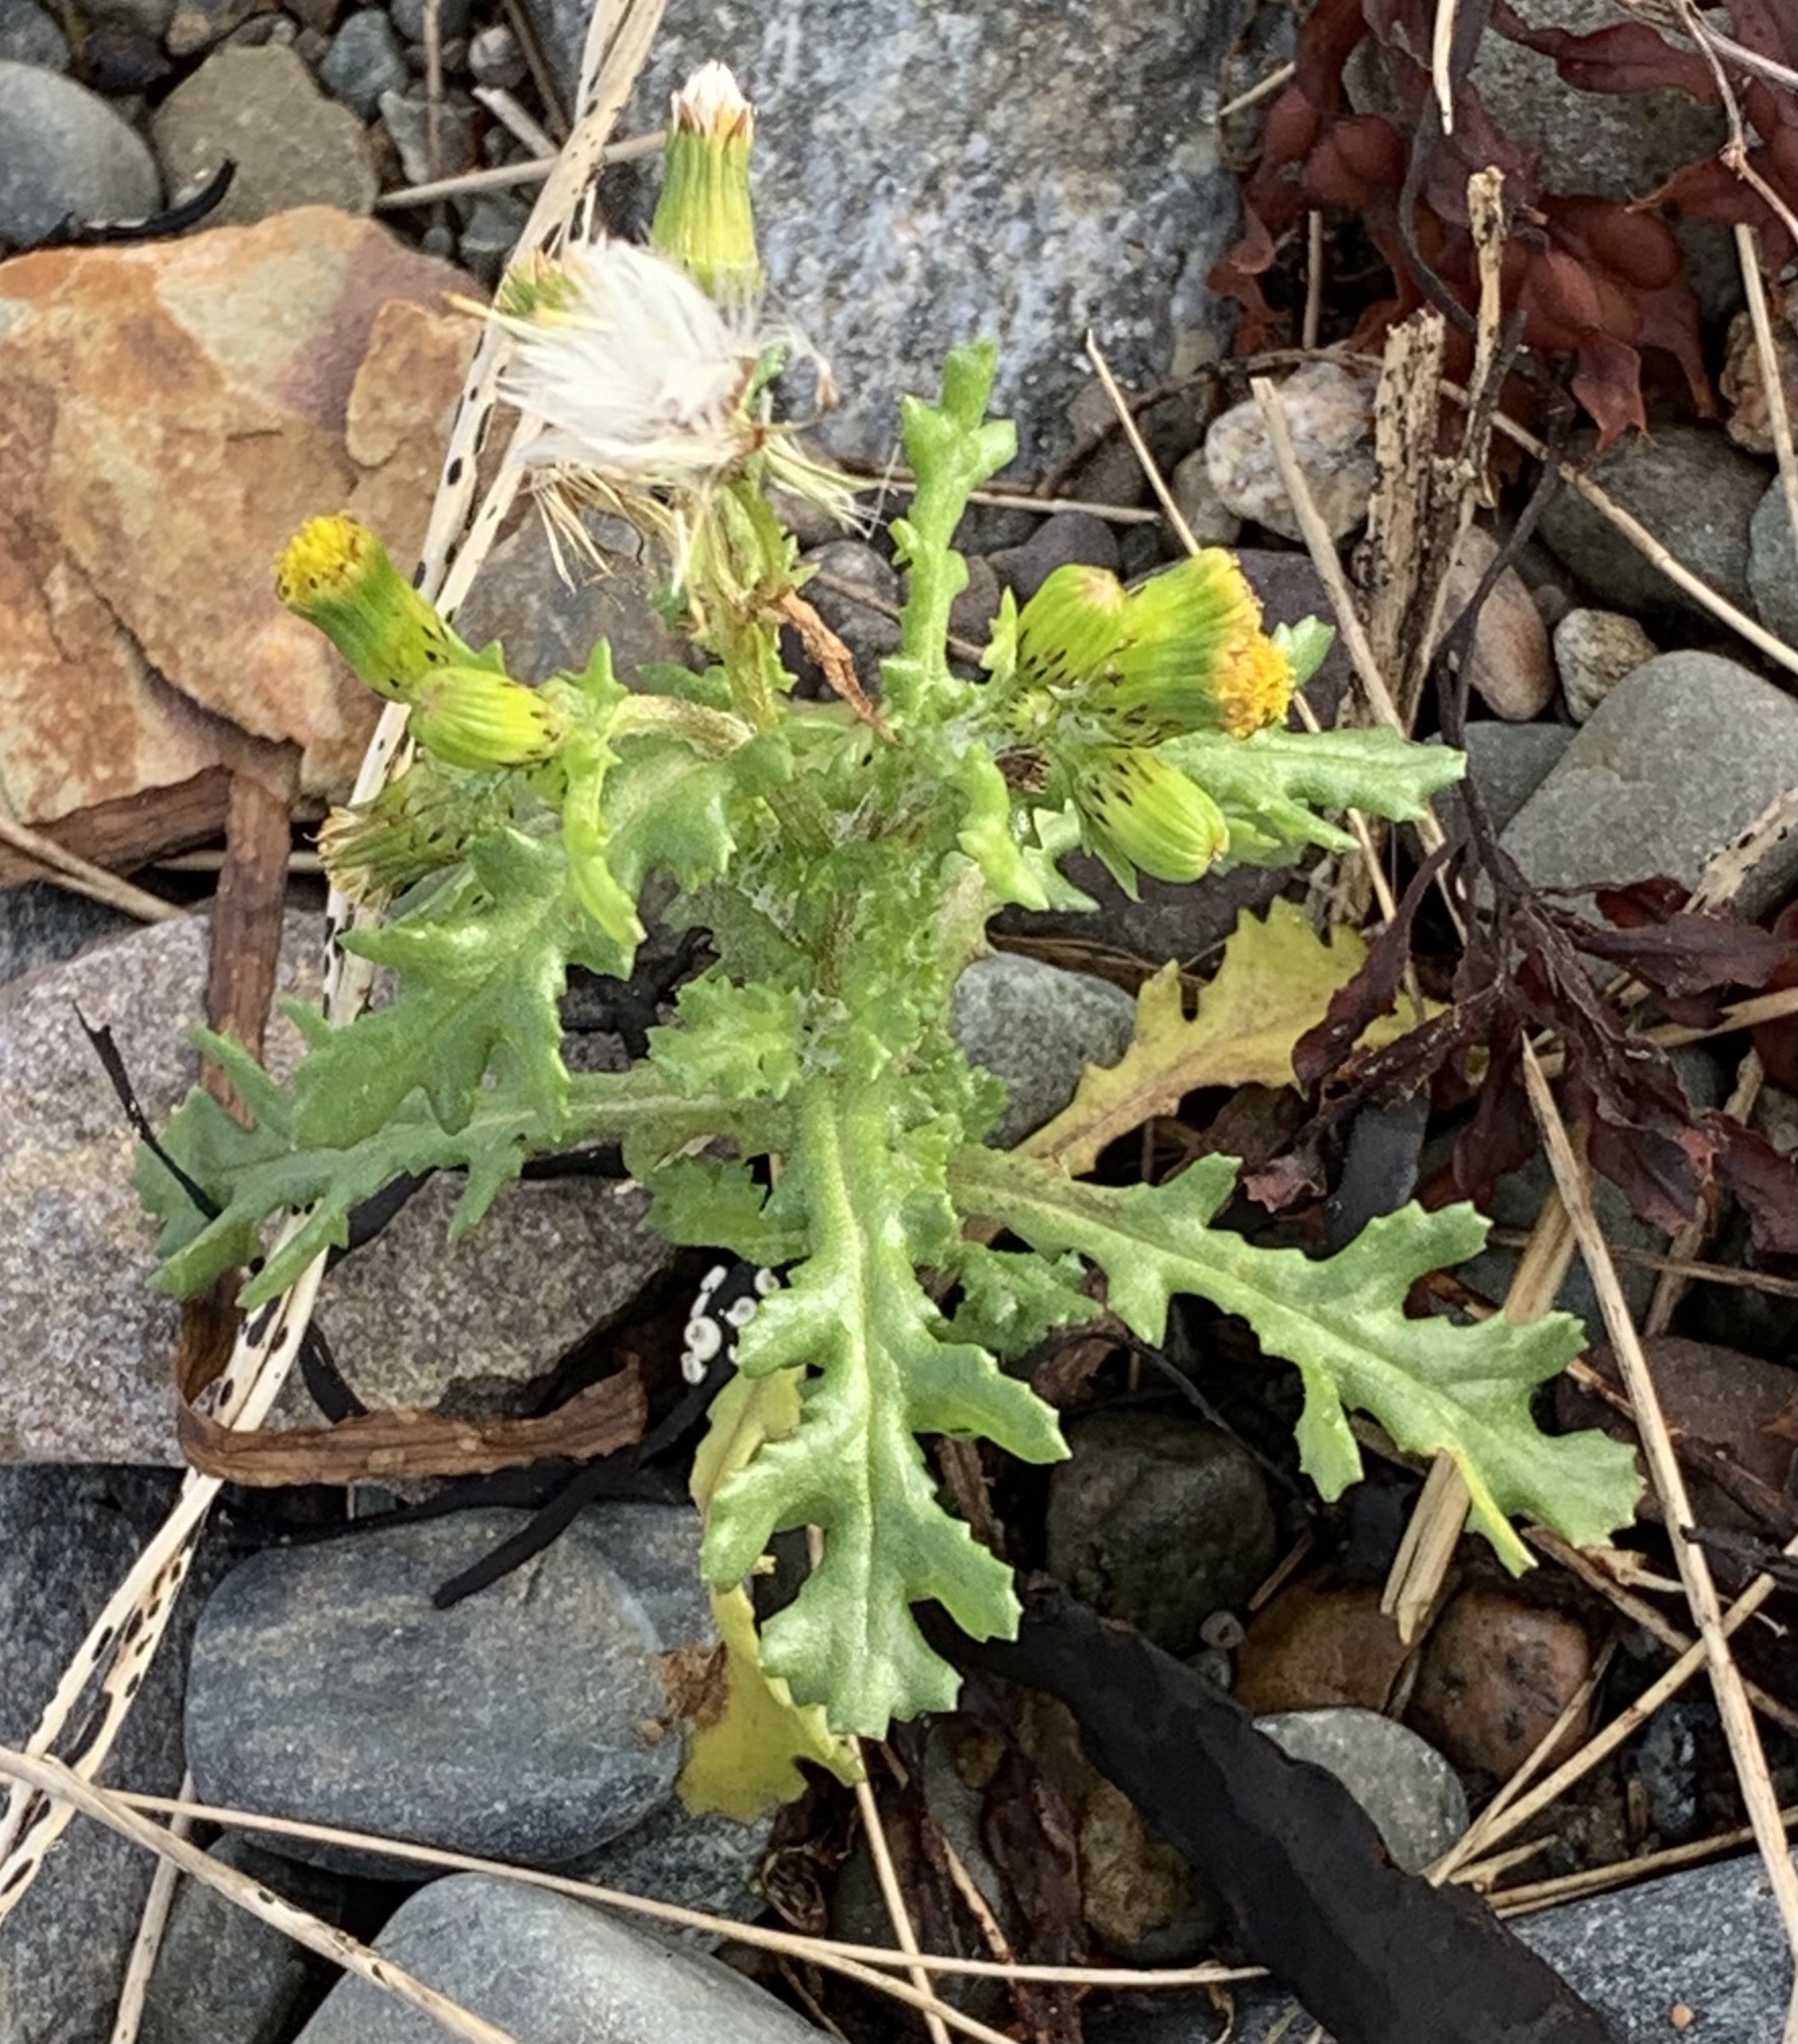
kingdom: Plantae
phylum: Tracheophyta
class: Magnoliopsida
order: Asterales
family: Asteraceae
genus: Senecio
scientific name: Senecio vulgaris
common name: Old-man-in-the-spring
